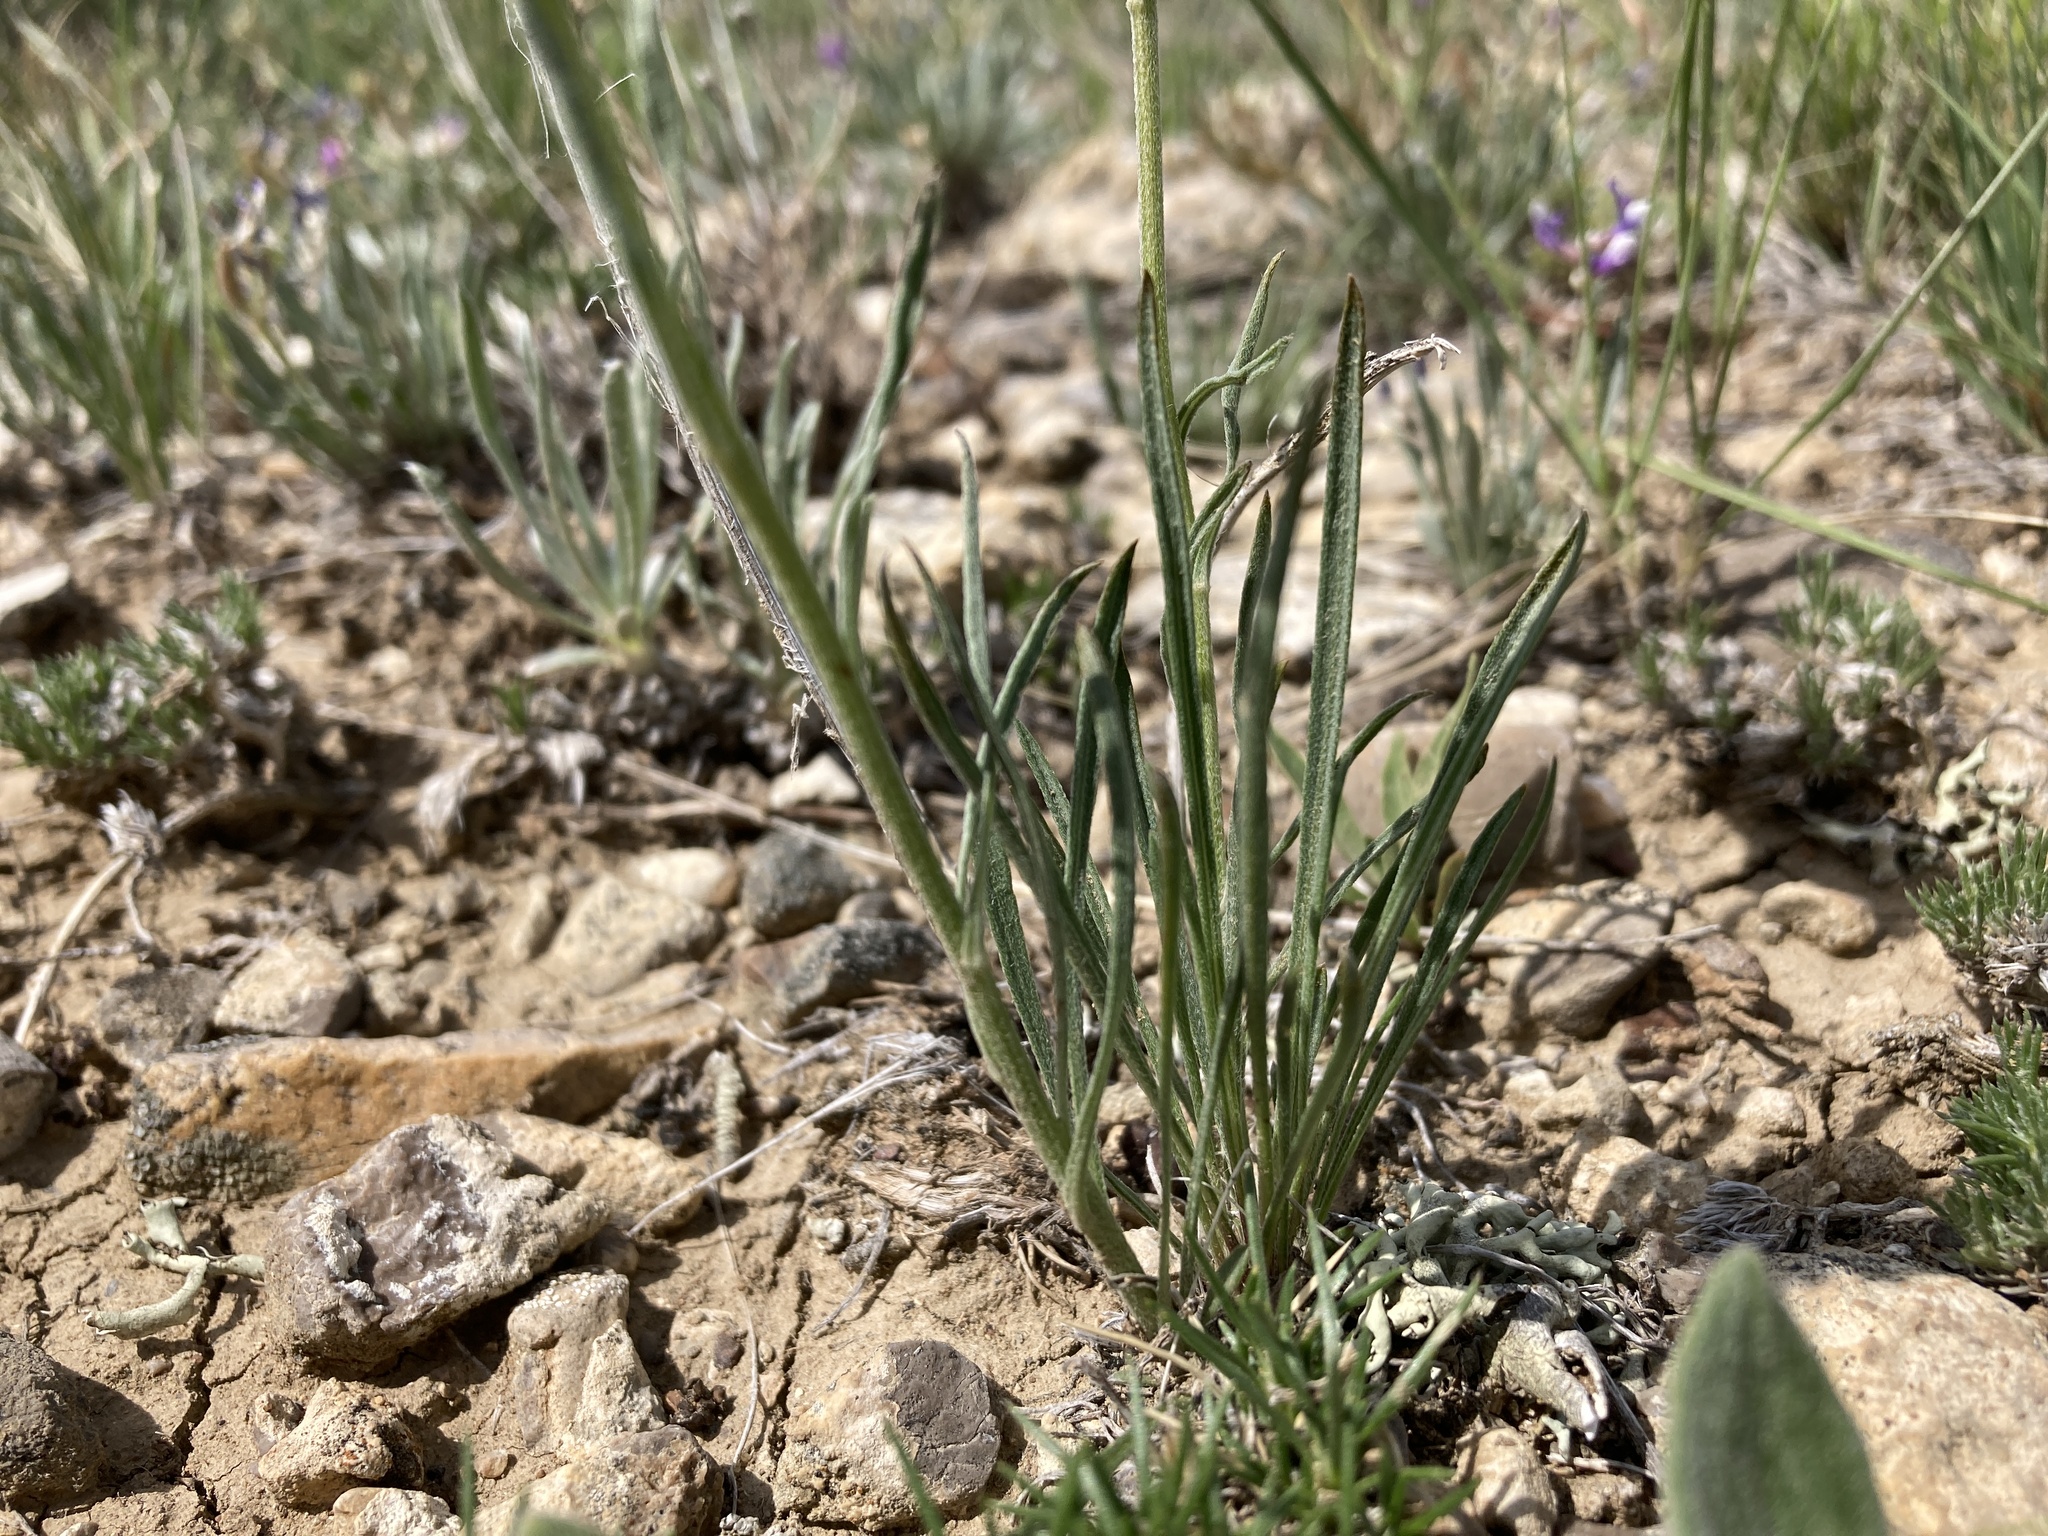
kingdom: Plantae
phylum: Tracheophyta
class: Magnoliopsida
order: Asterales
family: Asteraceae
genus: Erigeron
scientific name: Erigeron ochroleucus
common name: Buff fleabane
